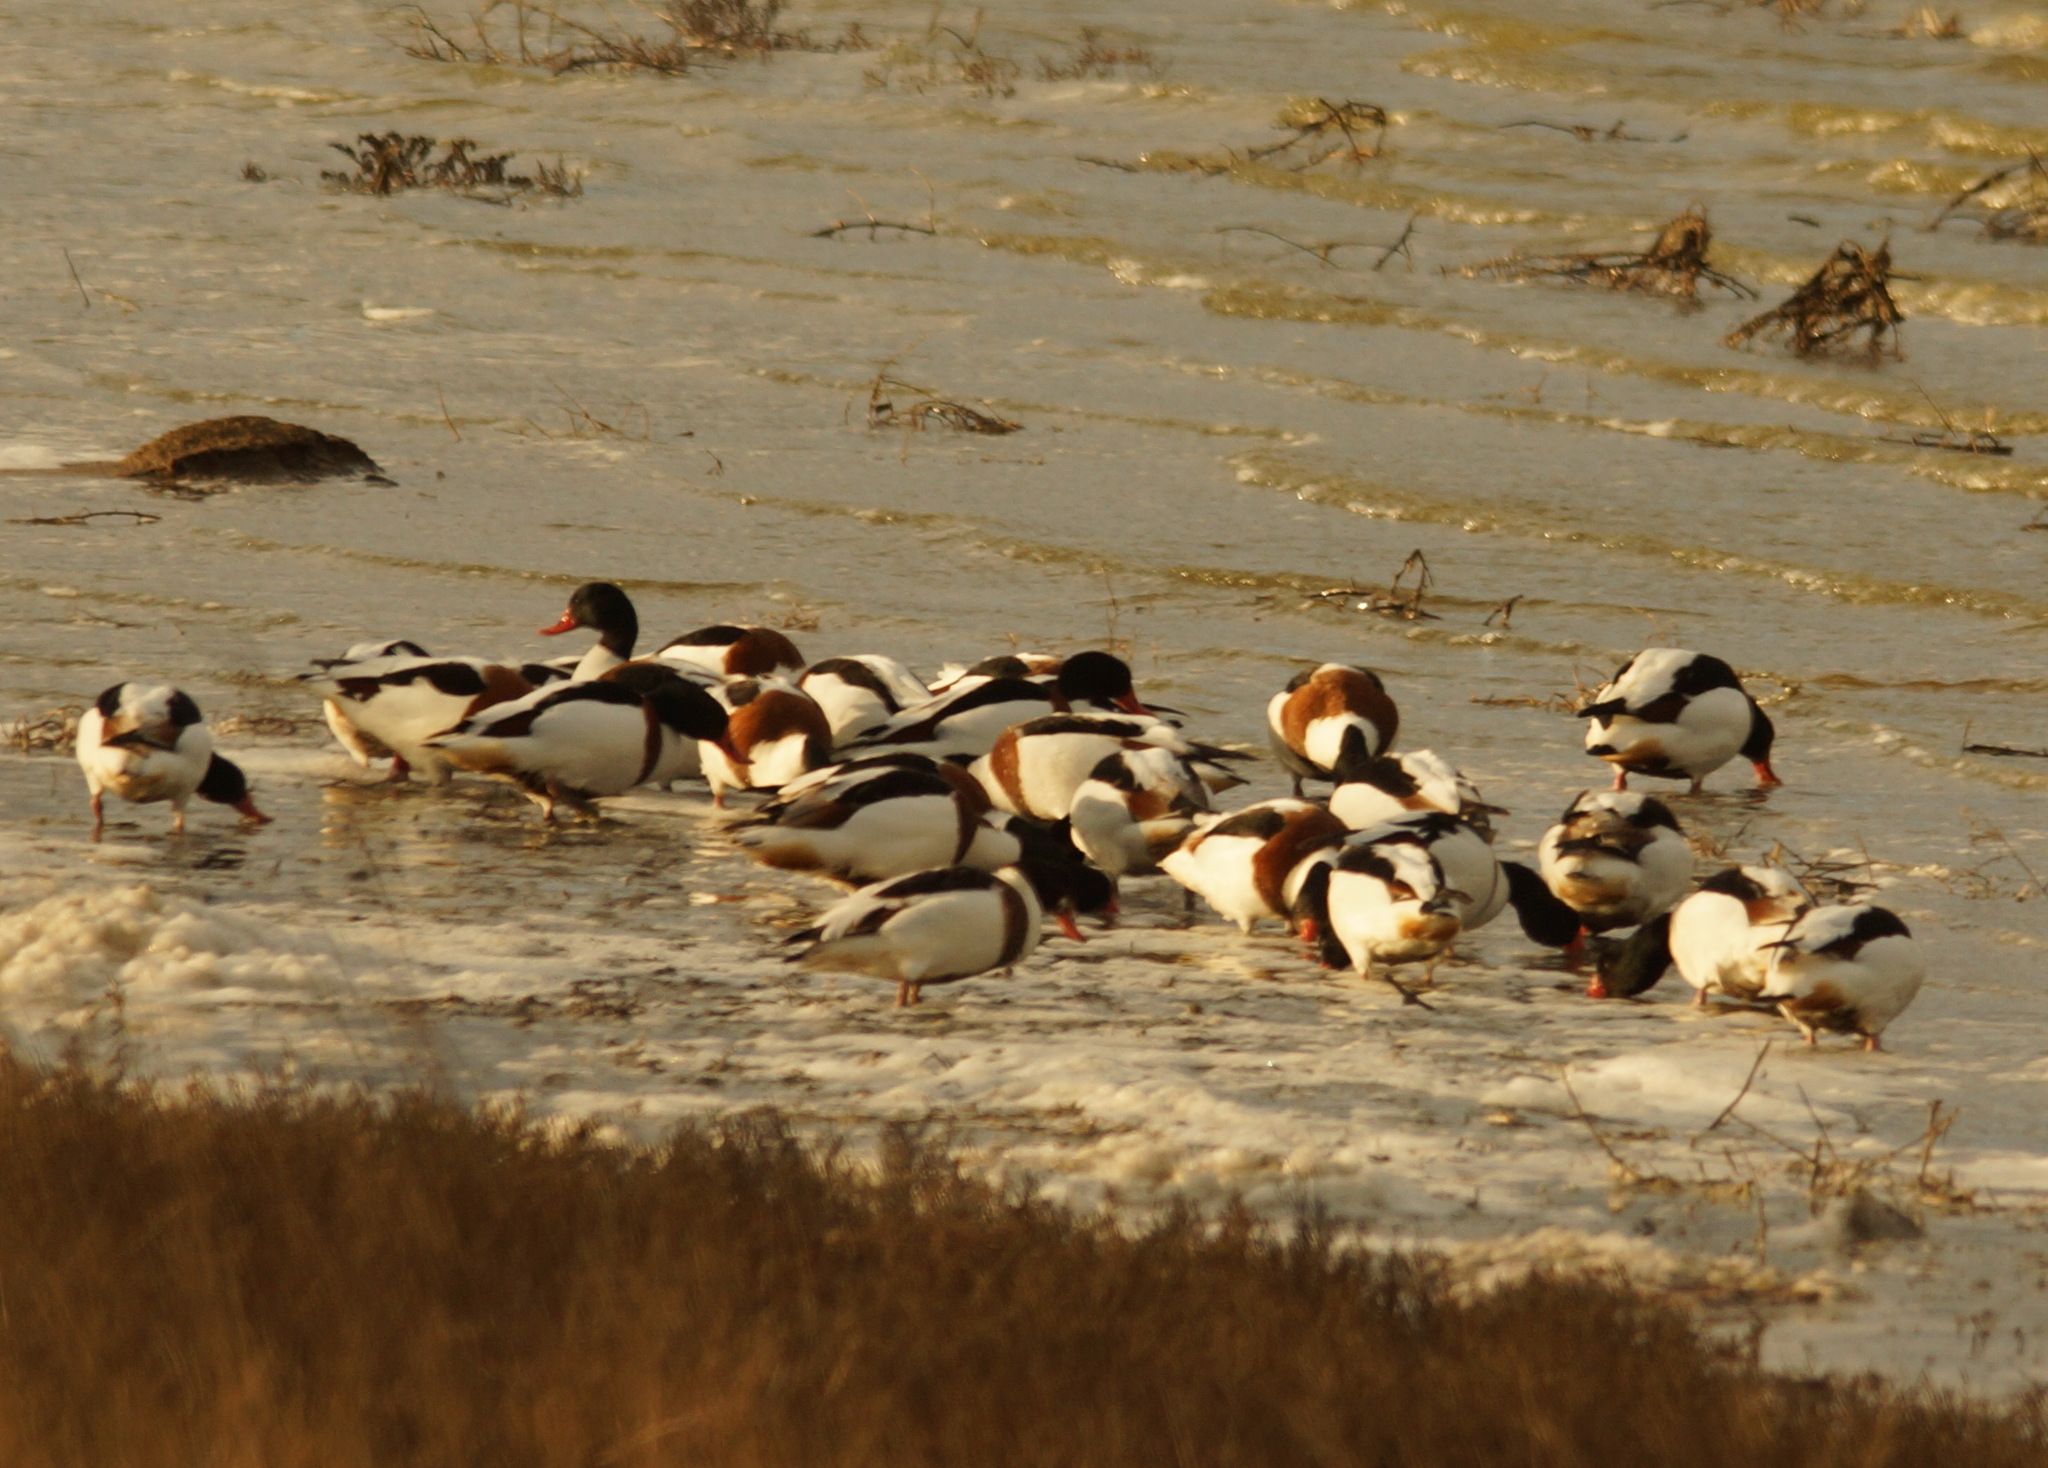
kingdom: Animalia
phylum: Chordata
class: Aves
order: Anseriformes
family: Anatidae
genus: Tadorna
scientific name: Tadorna tadorna
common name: Common shelduck
